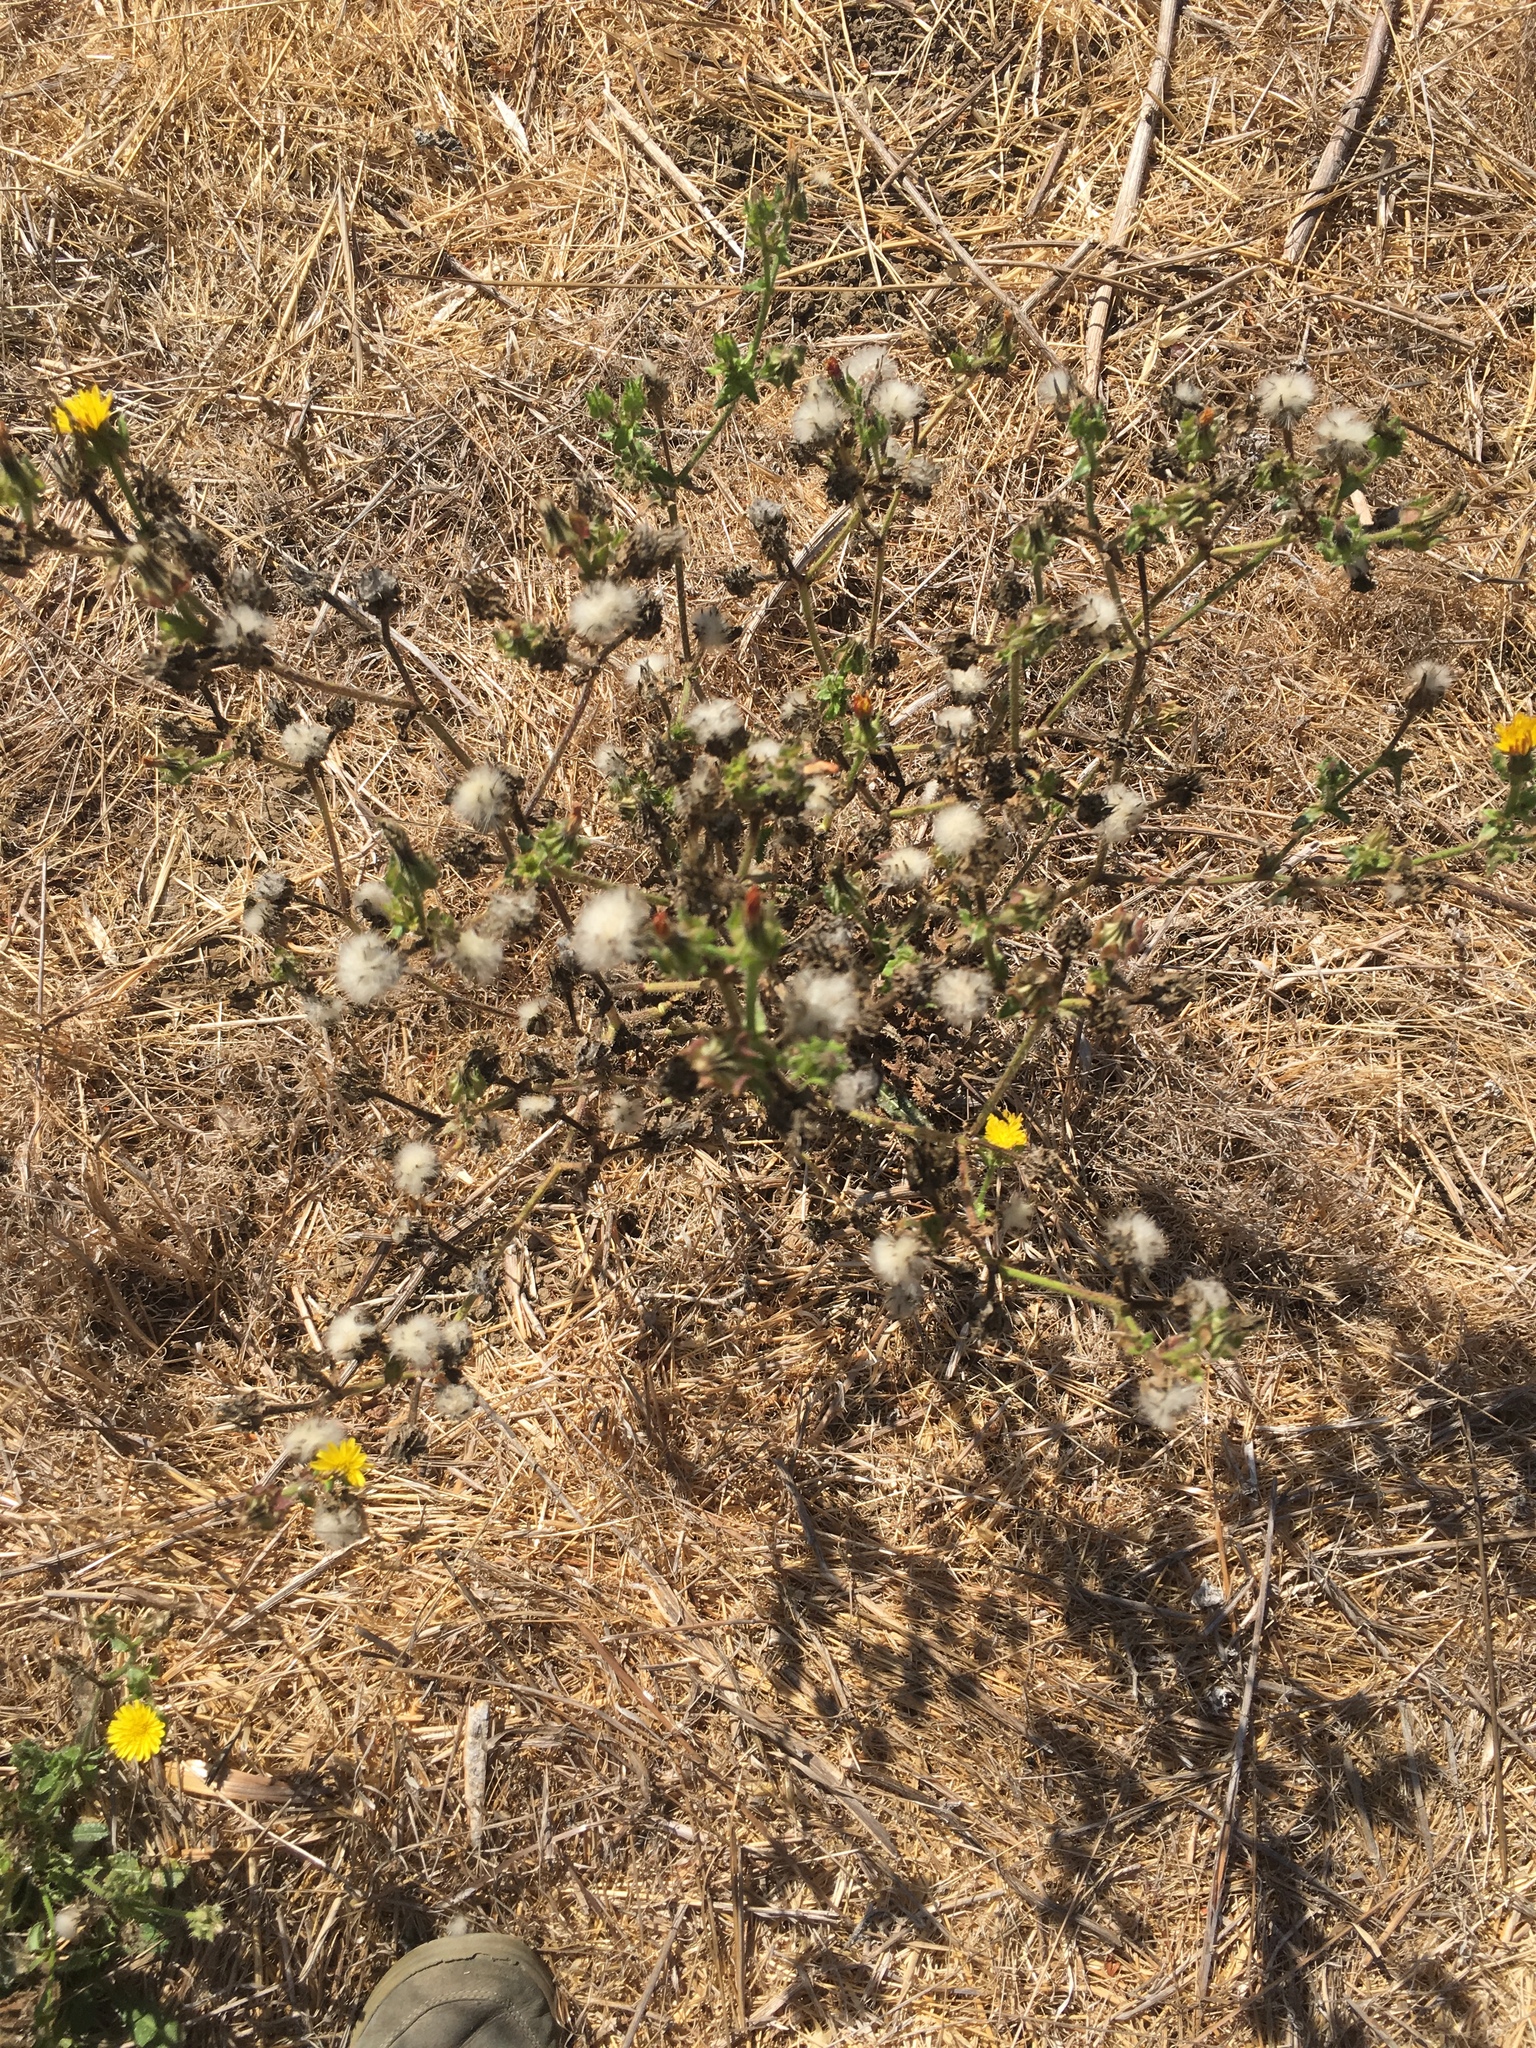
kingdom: Plantae
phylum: Tracheophyta
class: Magnoliopsida
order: Asterales
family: Asteraceae
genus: Helminthotheca
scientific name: Helminthotheca echioides
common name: Ox-tongue
